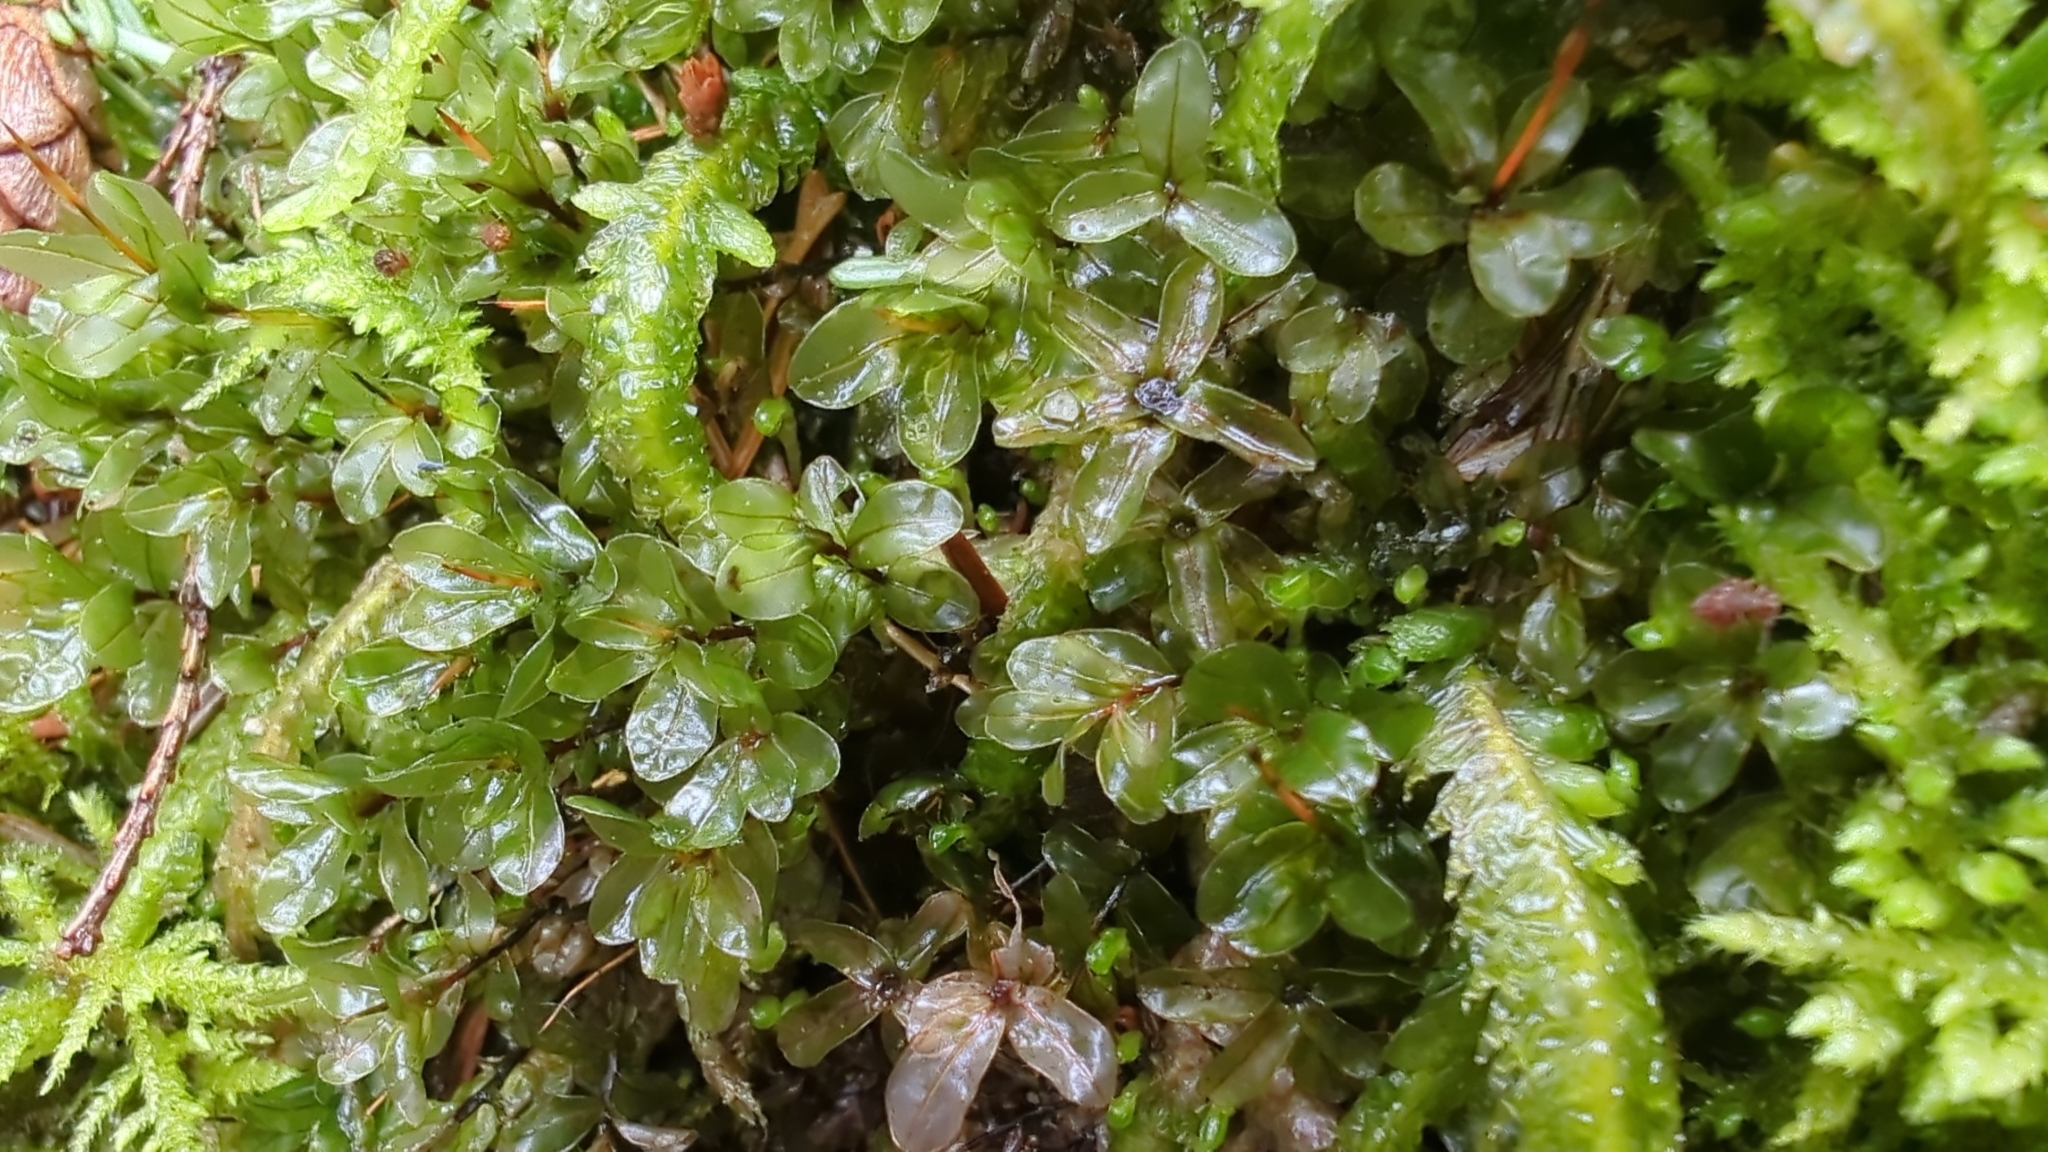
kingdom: Plantae
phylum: Bryophyta
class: Bryopsida
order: Bryales
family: Mniaceae
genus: Rhizomnium
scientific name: Rhizomnium glabrescens
